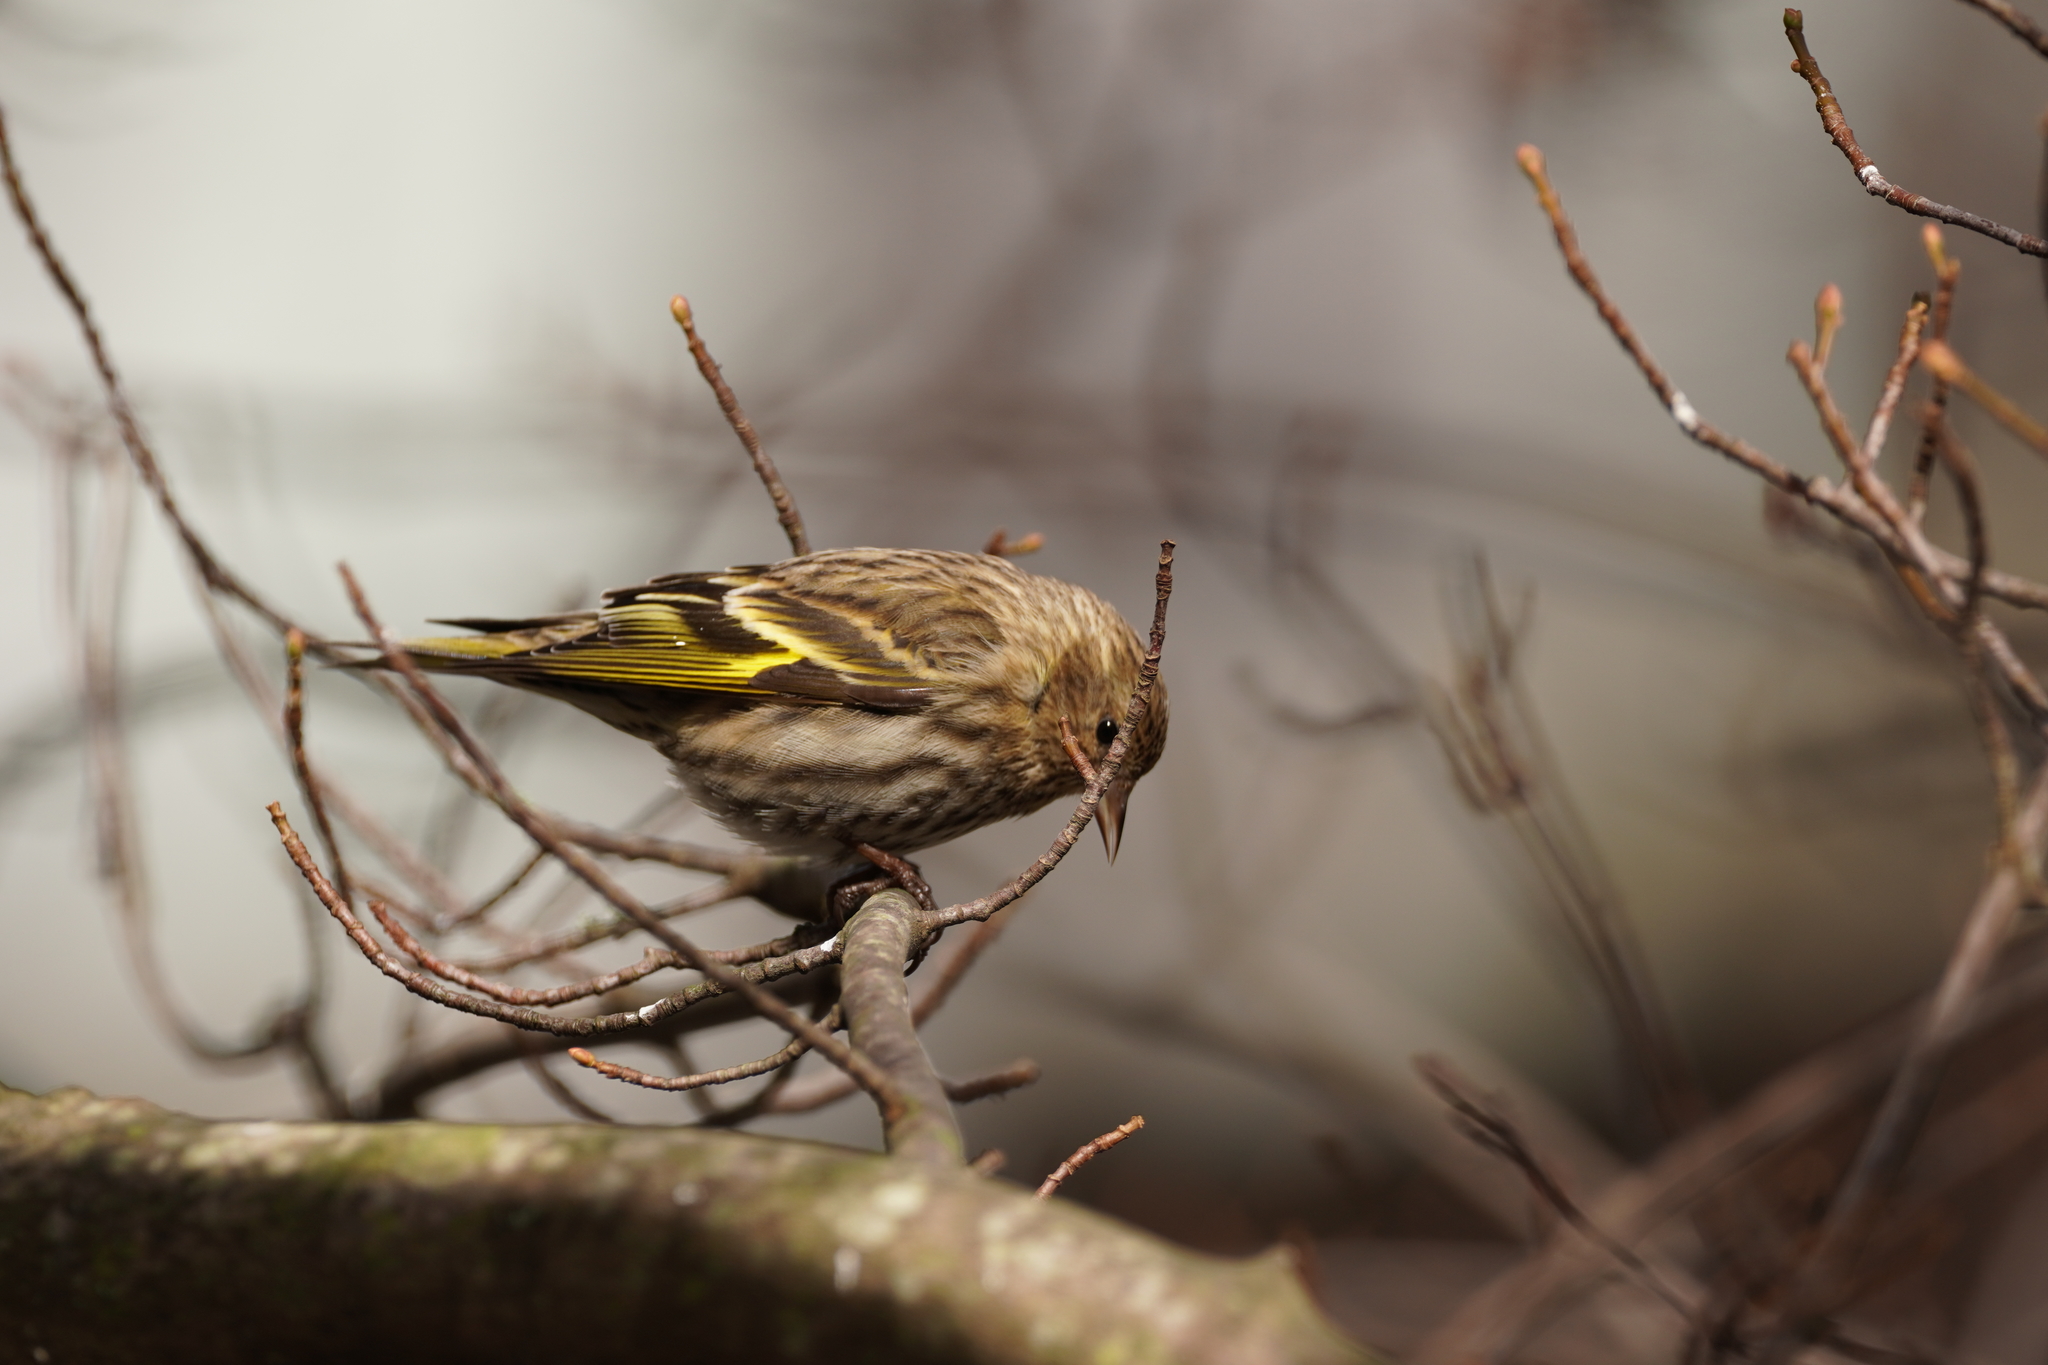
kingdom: Animalia
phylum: Chordata
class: Aves
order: Passeriformes
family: Fringillidae
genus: Spinus
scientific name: Spinus pinus
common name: Pine siskin
